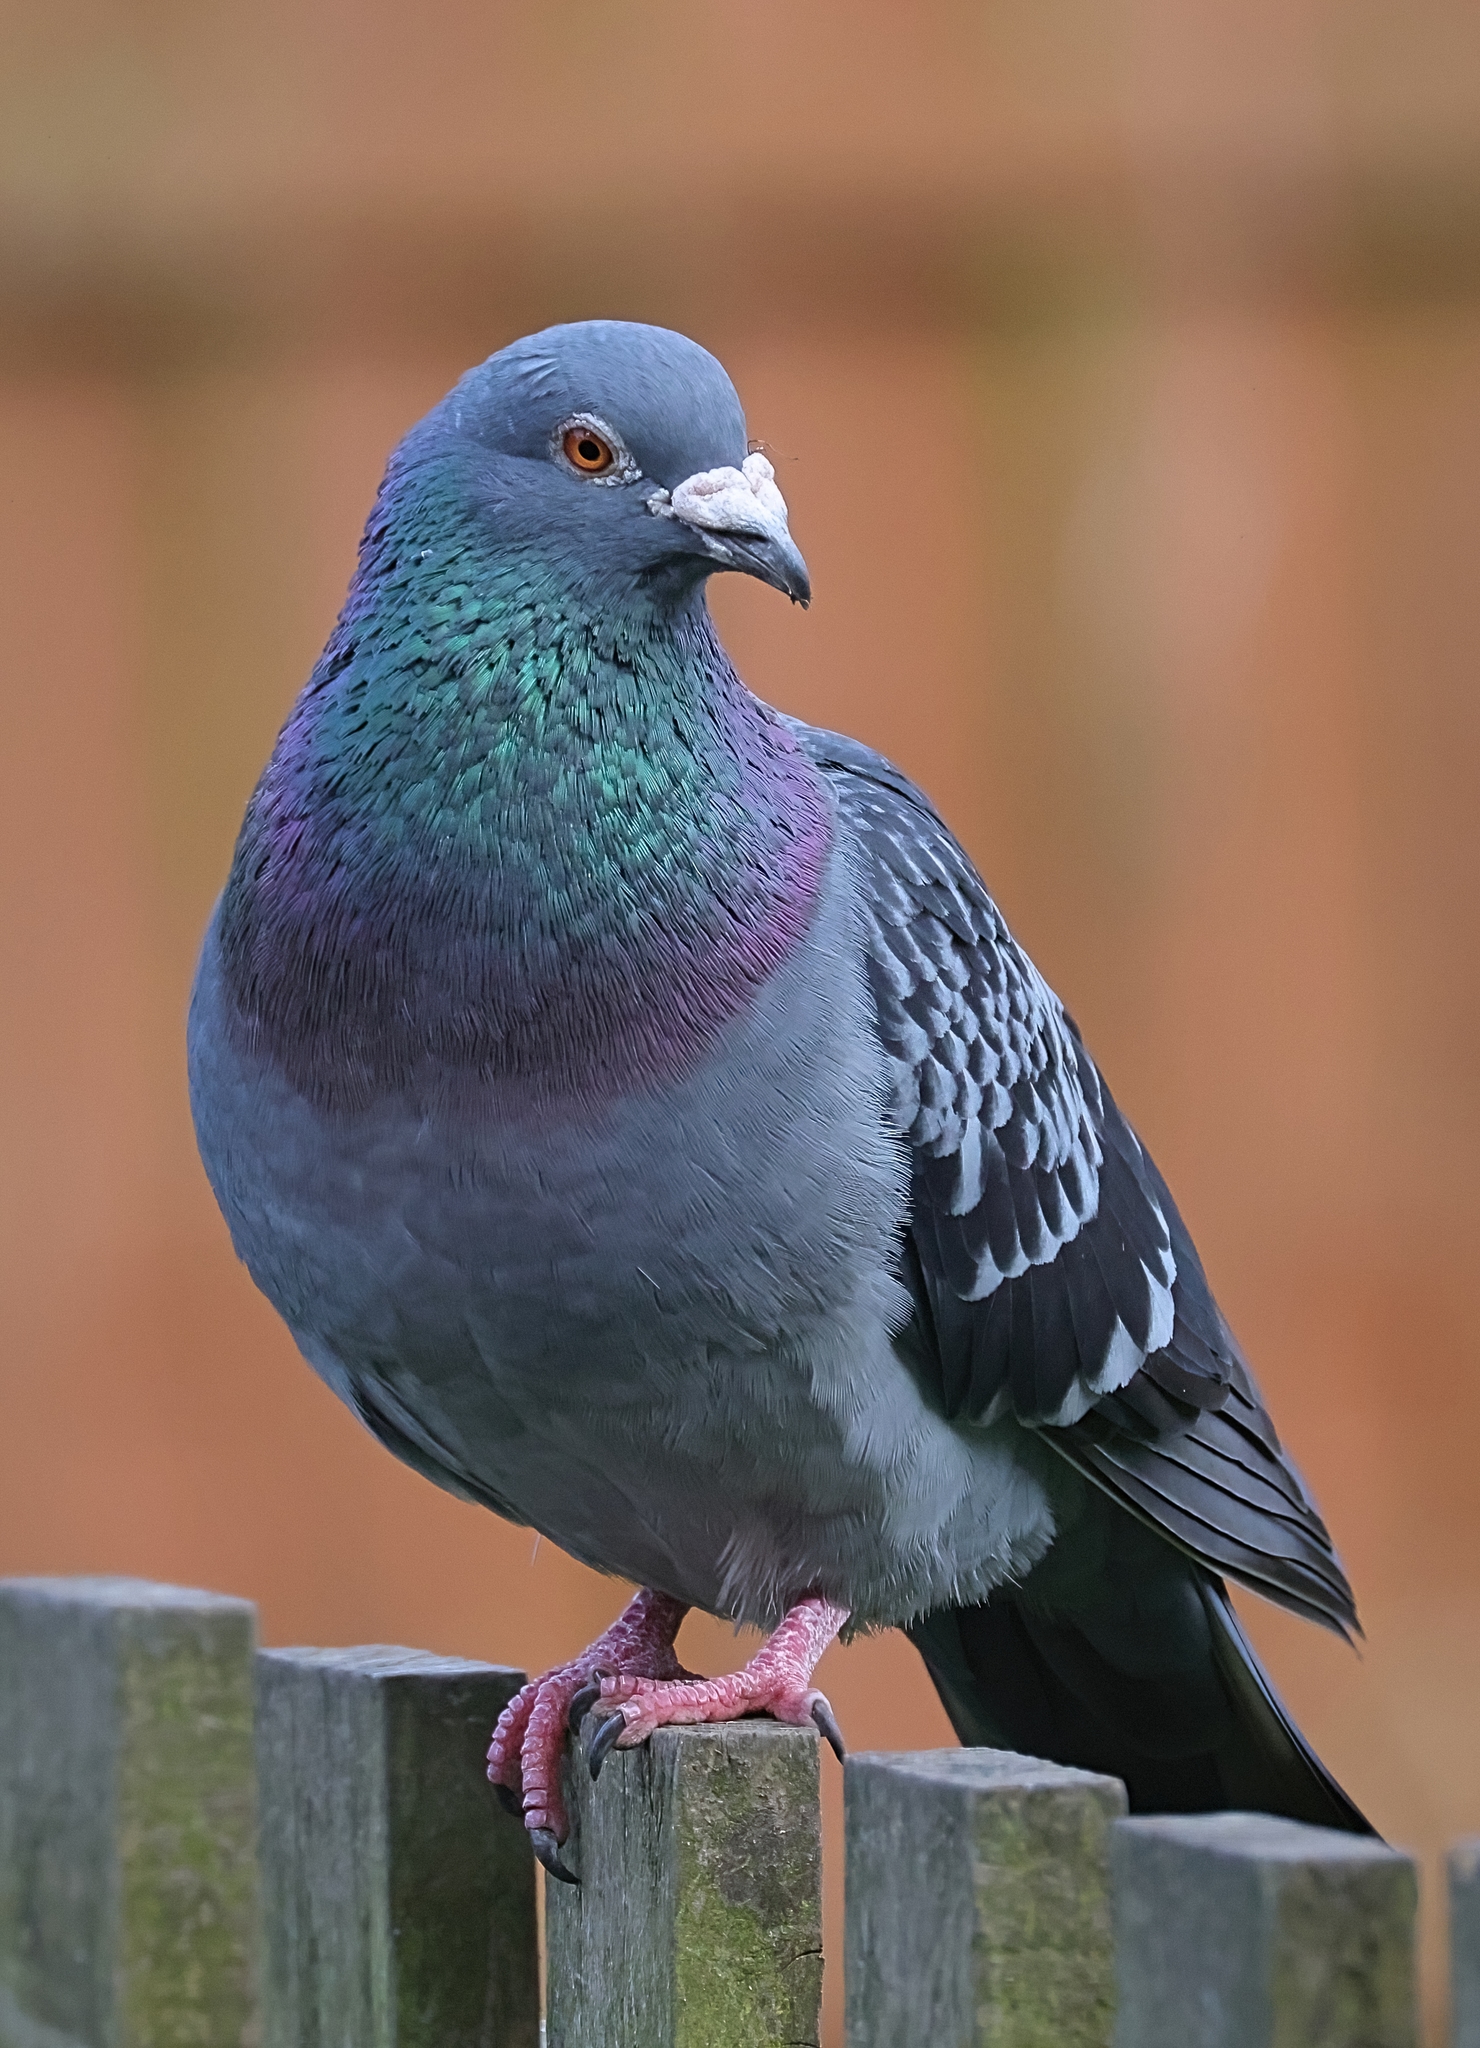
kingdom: Animalia
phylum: Chordata
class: Aves
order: Columbiformes
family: Columbidae
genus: Columba
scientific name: Columba livia
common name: Rock pigeon
